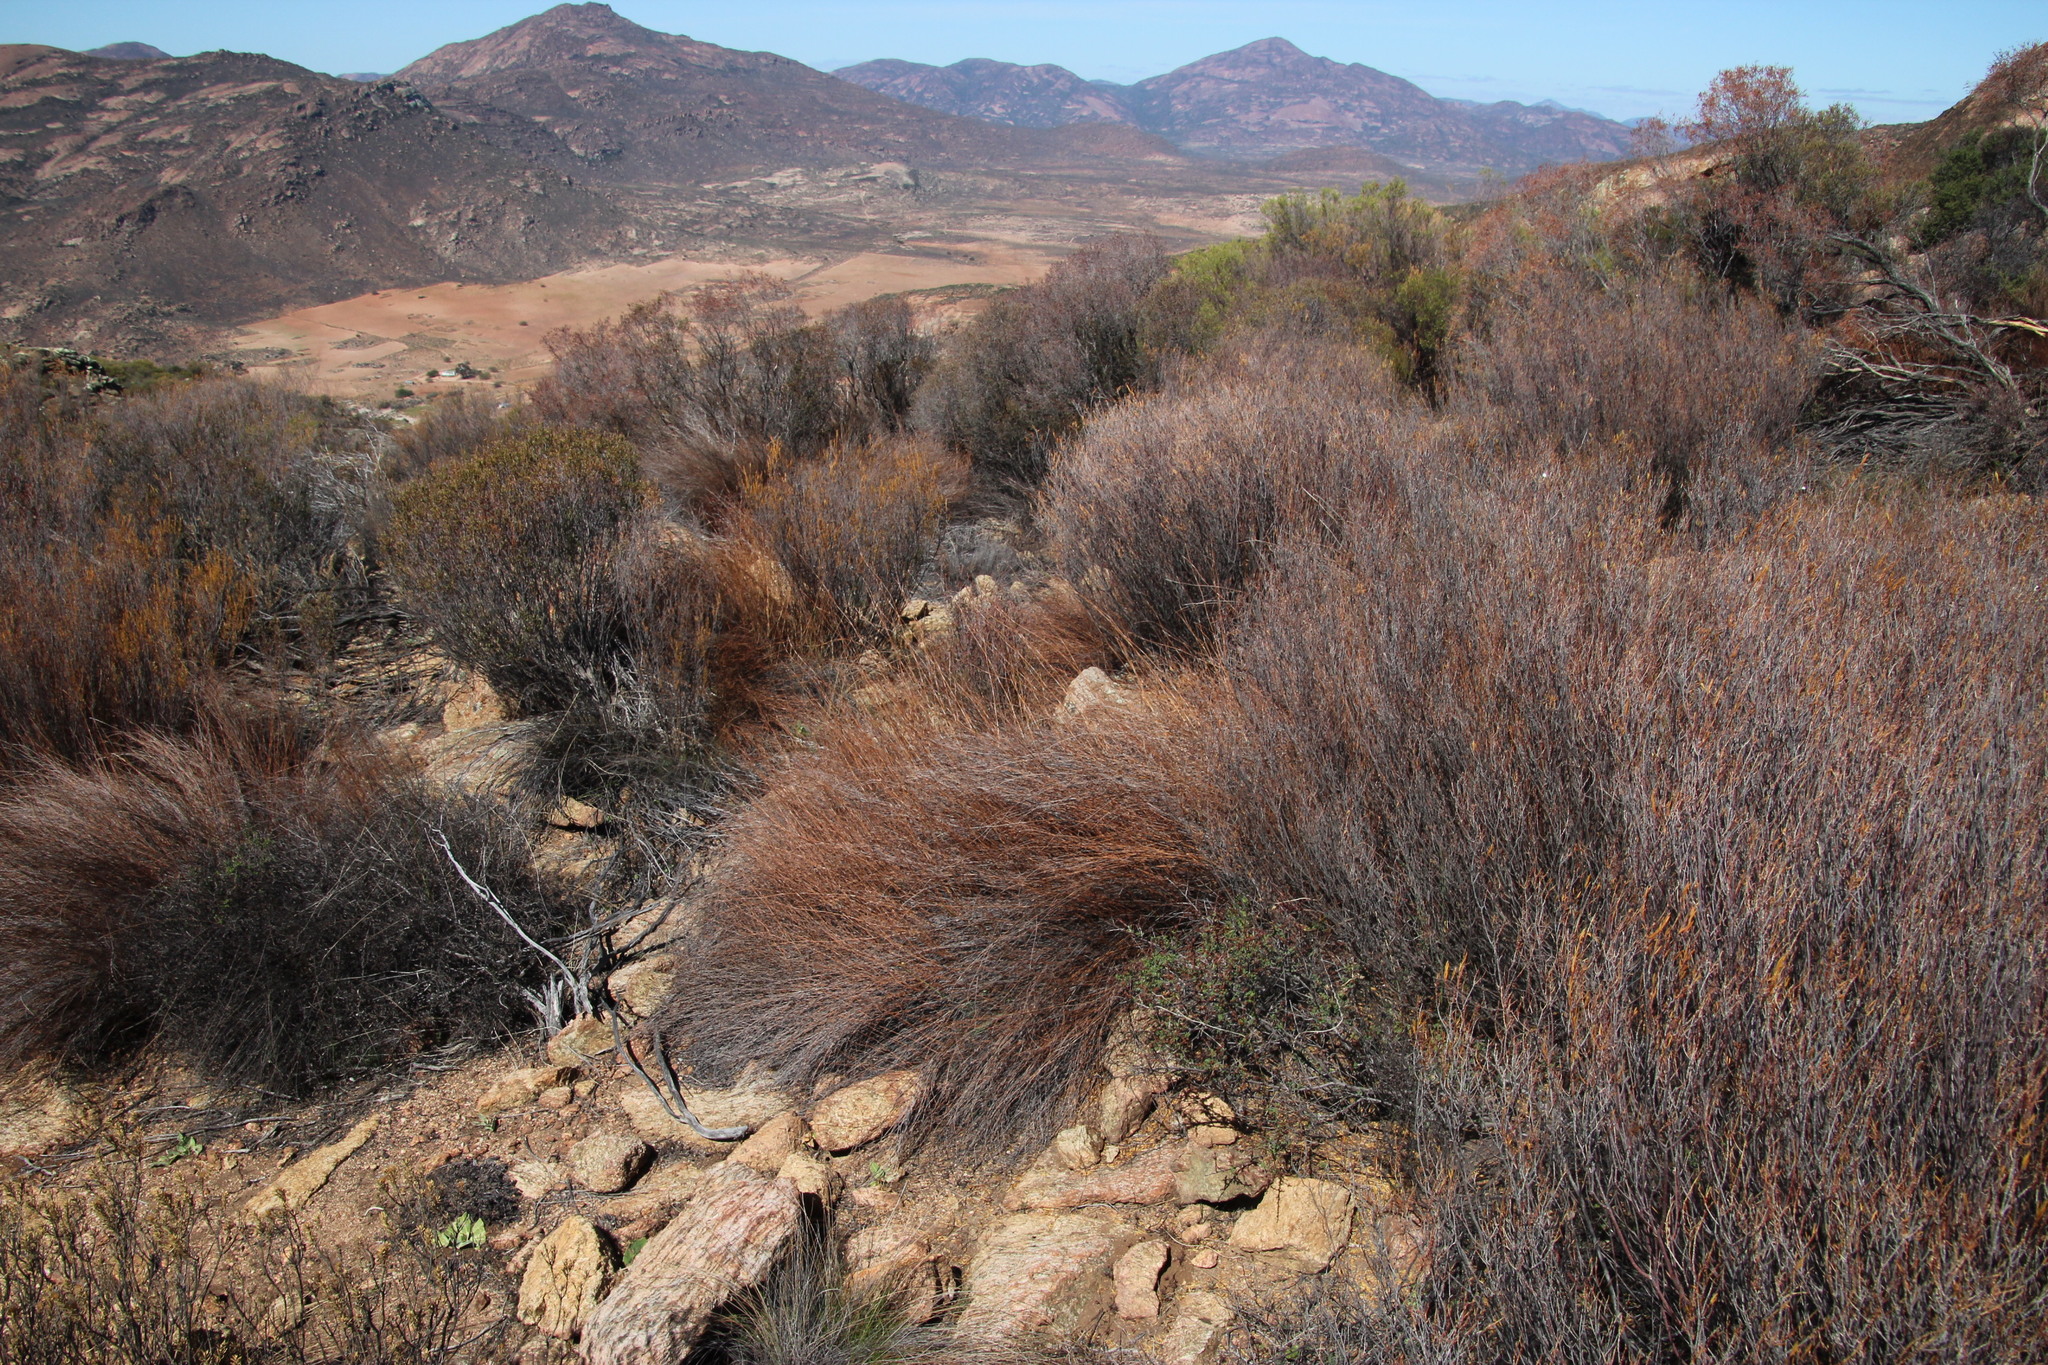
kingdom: Plantae
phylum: Tracheophyta
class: Liliopsida
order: Poales
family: Restionaceae
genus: Restio
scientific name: Restio vilis
